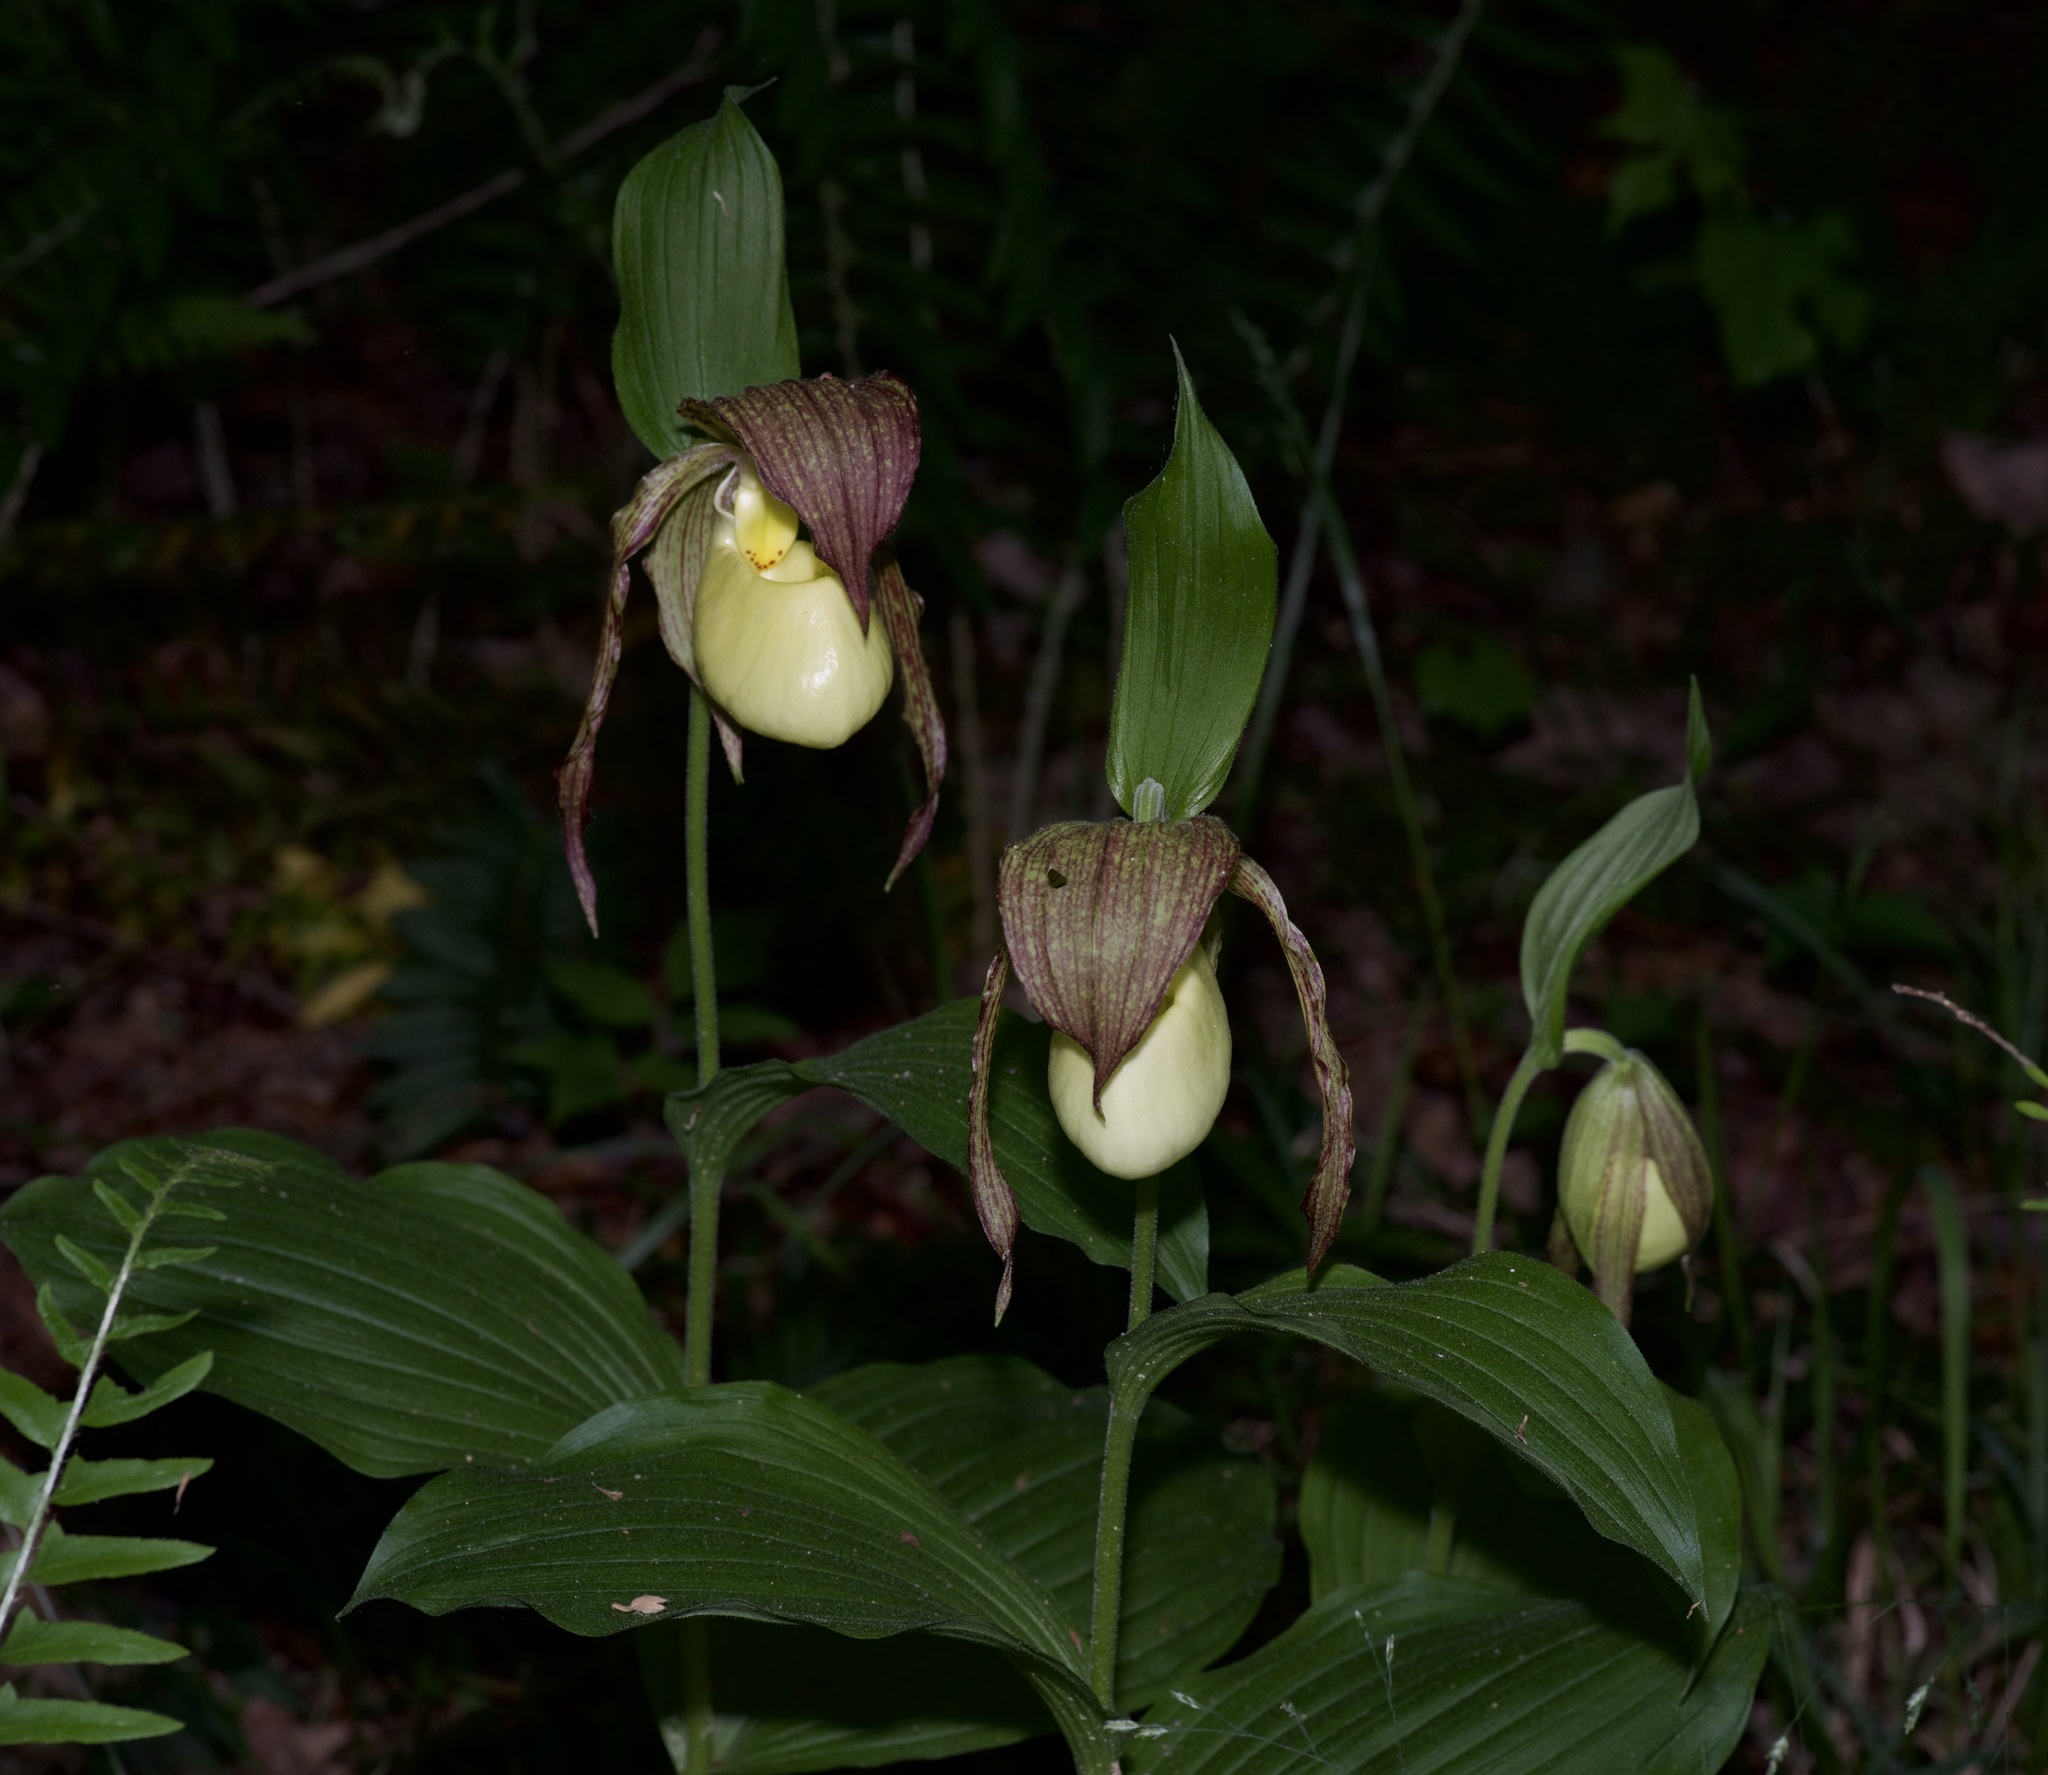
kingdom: Plantae
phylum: Tracheophyta
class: Liliopsida
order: Asparagales
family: Orchidaceae
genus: Cypripedium
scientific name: Cypripedium kentuckiense
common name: Kentucky lady's slipper
